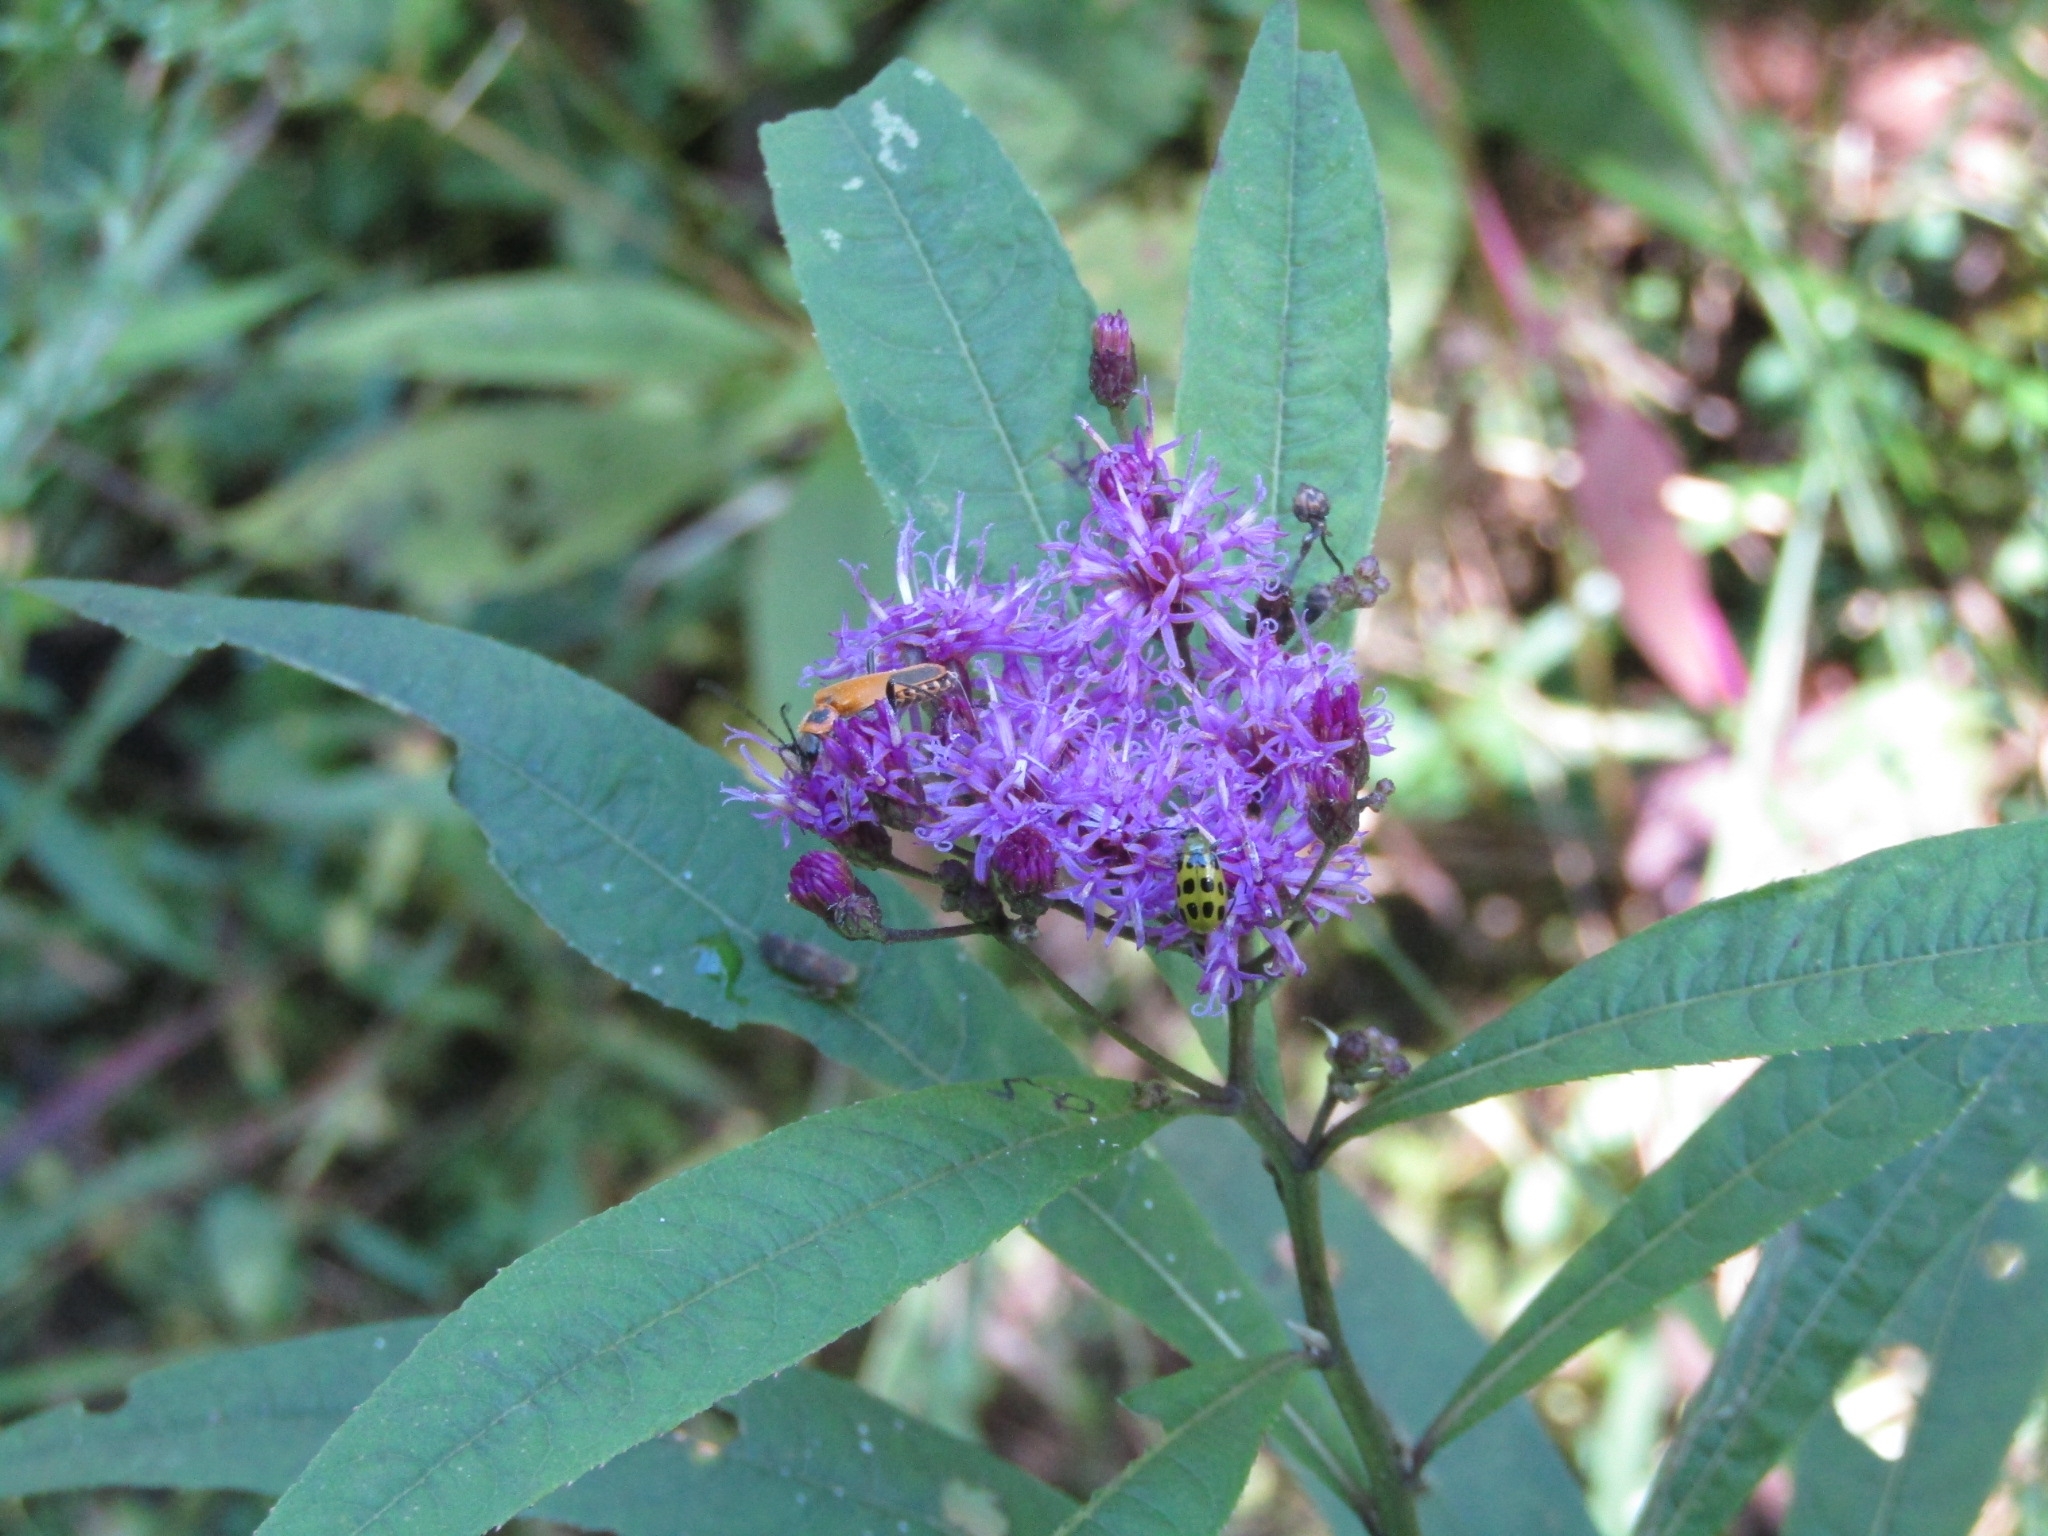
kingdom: Animalia
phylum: Arthropoda
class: Insecta
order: Coleoptera
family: Cantharidae
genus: Chauliognathus
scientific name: Chauliognathus pensylvanicus
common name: Goldenrod soldier beetle
